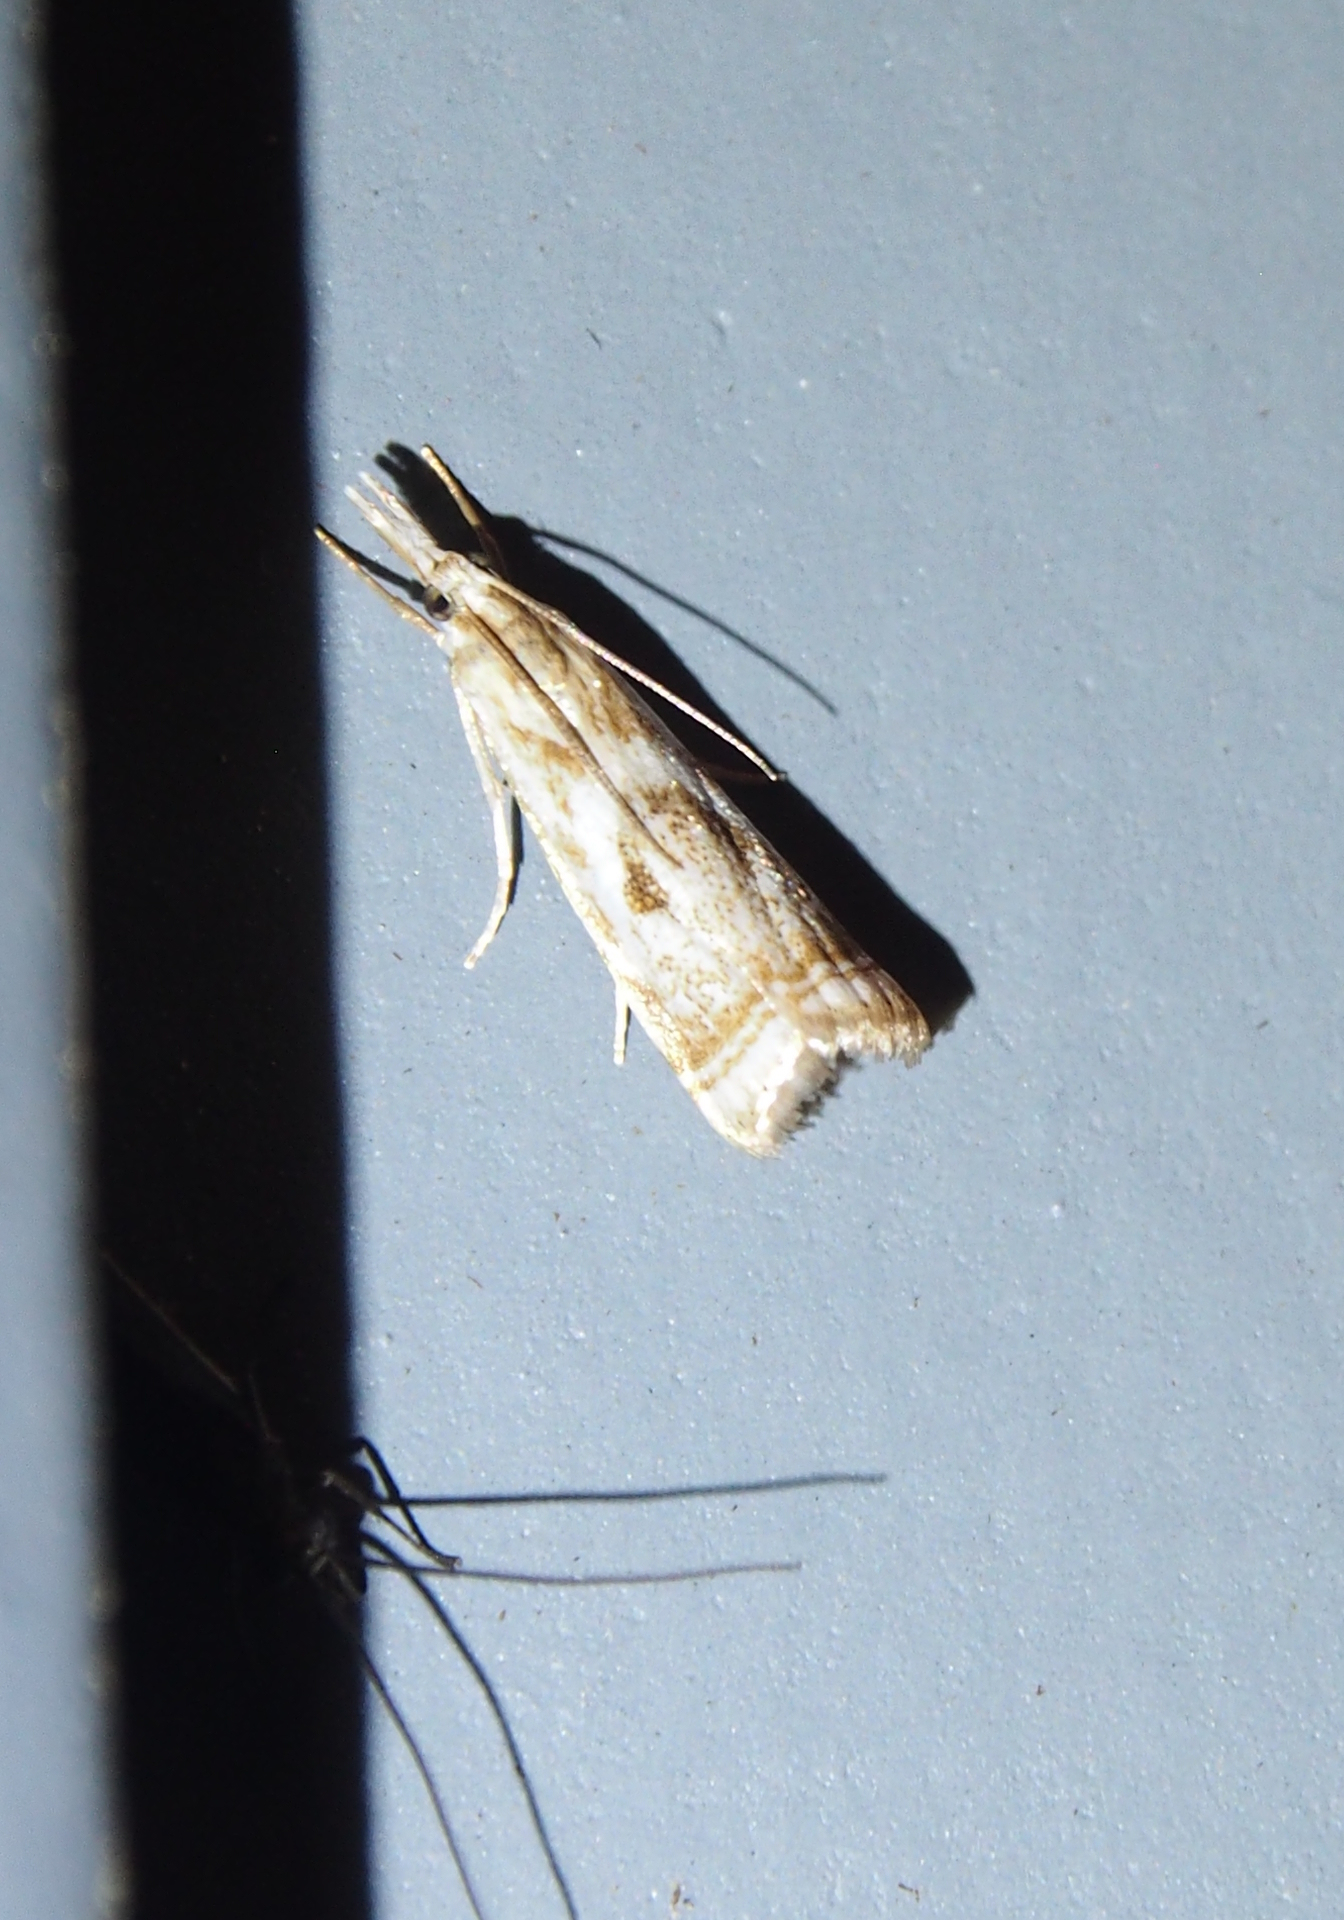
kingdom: Animalia
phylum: Arthropoda
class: Insecta
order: Lepidoptera
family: Crambidae
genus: Microcrambus
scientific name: Microcrambus elegans
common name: Elegant grass-veneer
